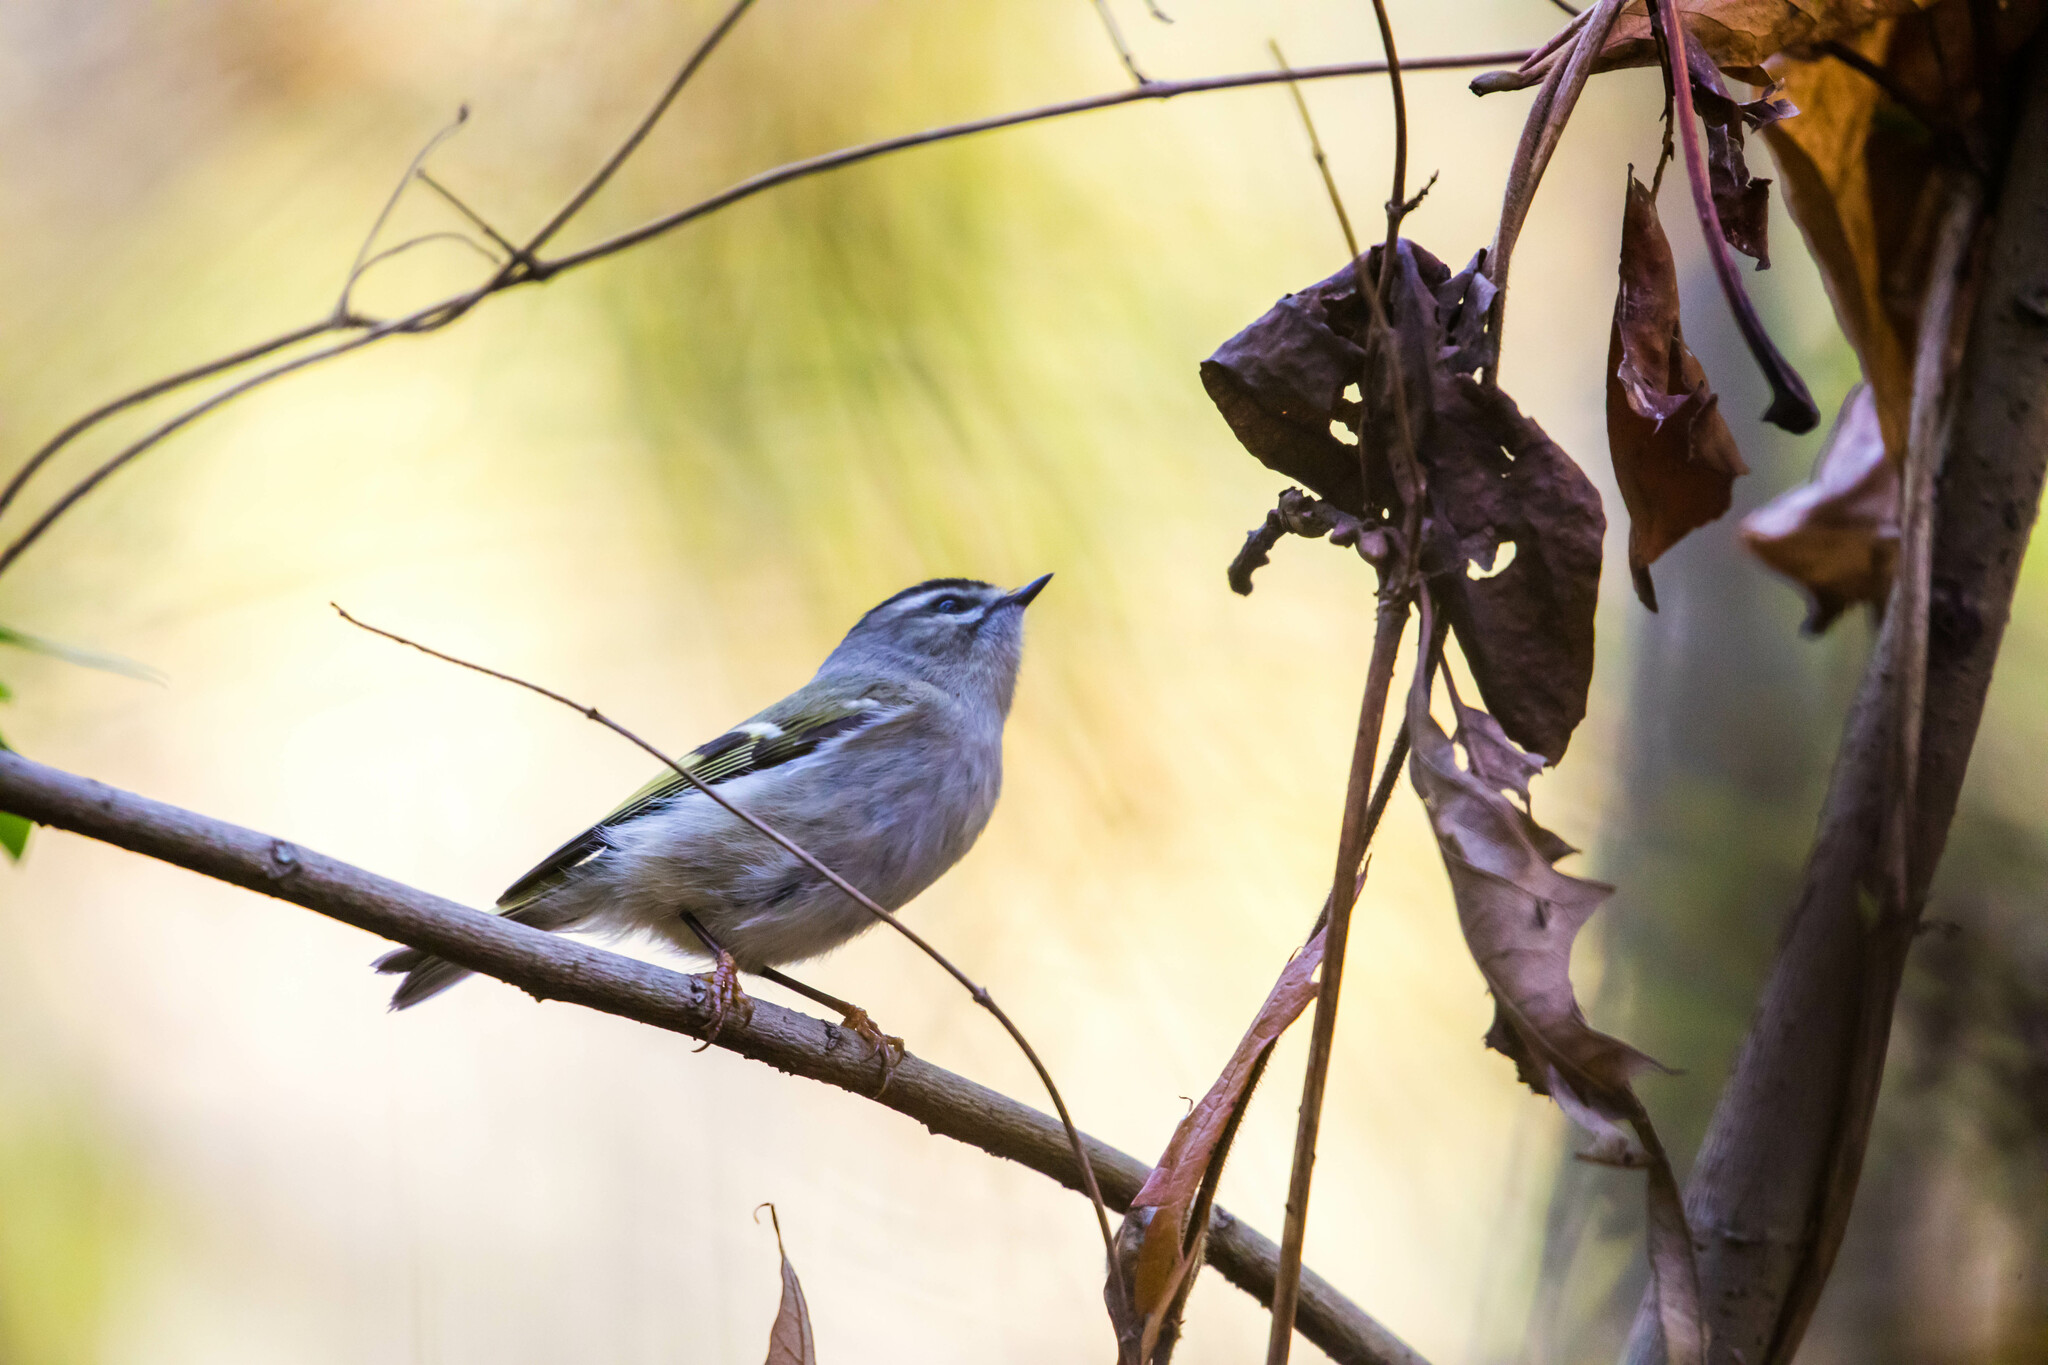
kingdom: Animalia
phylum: Chordata
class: Aves
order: Passeriformes
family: Regulidae
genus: Regulus
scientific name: Regulus satrapa
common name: Golden-crowned kinglet
